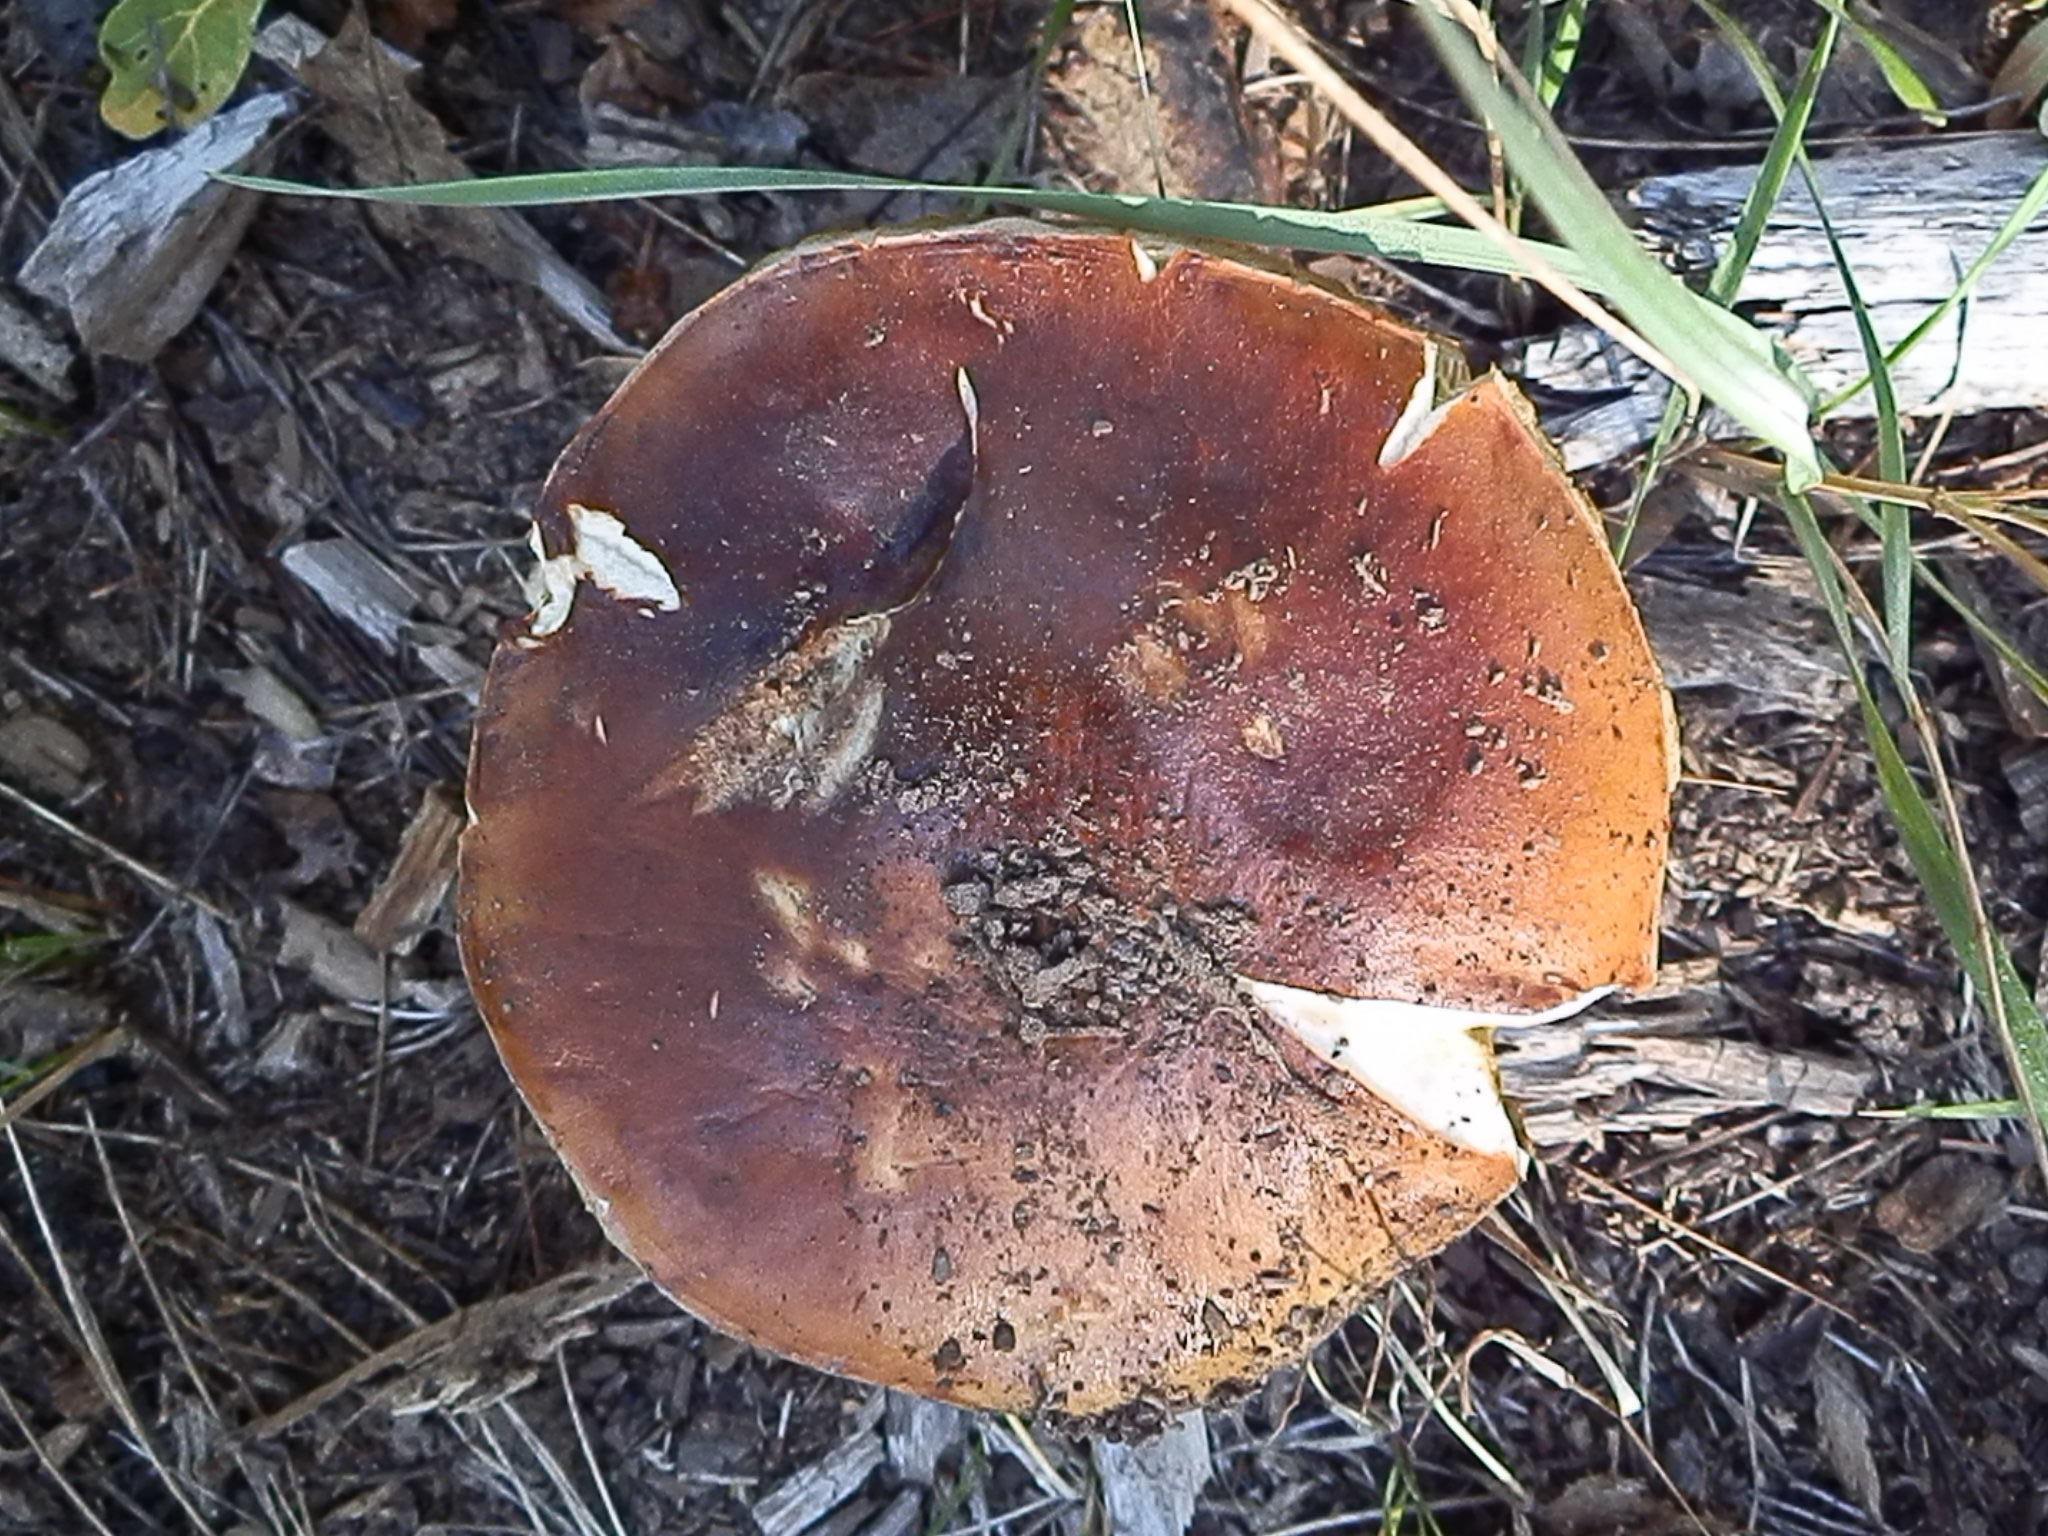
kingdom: Fungi
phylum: Basidiomycota
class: Agaricomycetes
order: Boletales
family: Boletaceae
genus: Boletus
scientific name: Boletus rubriceps
